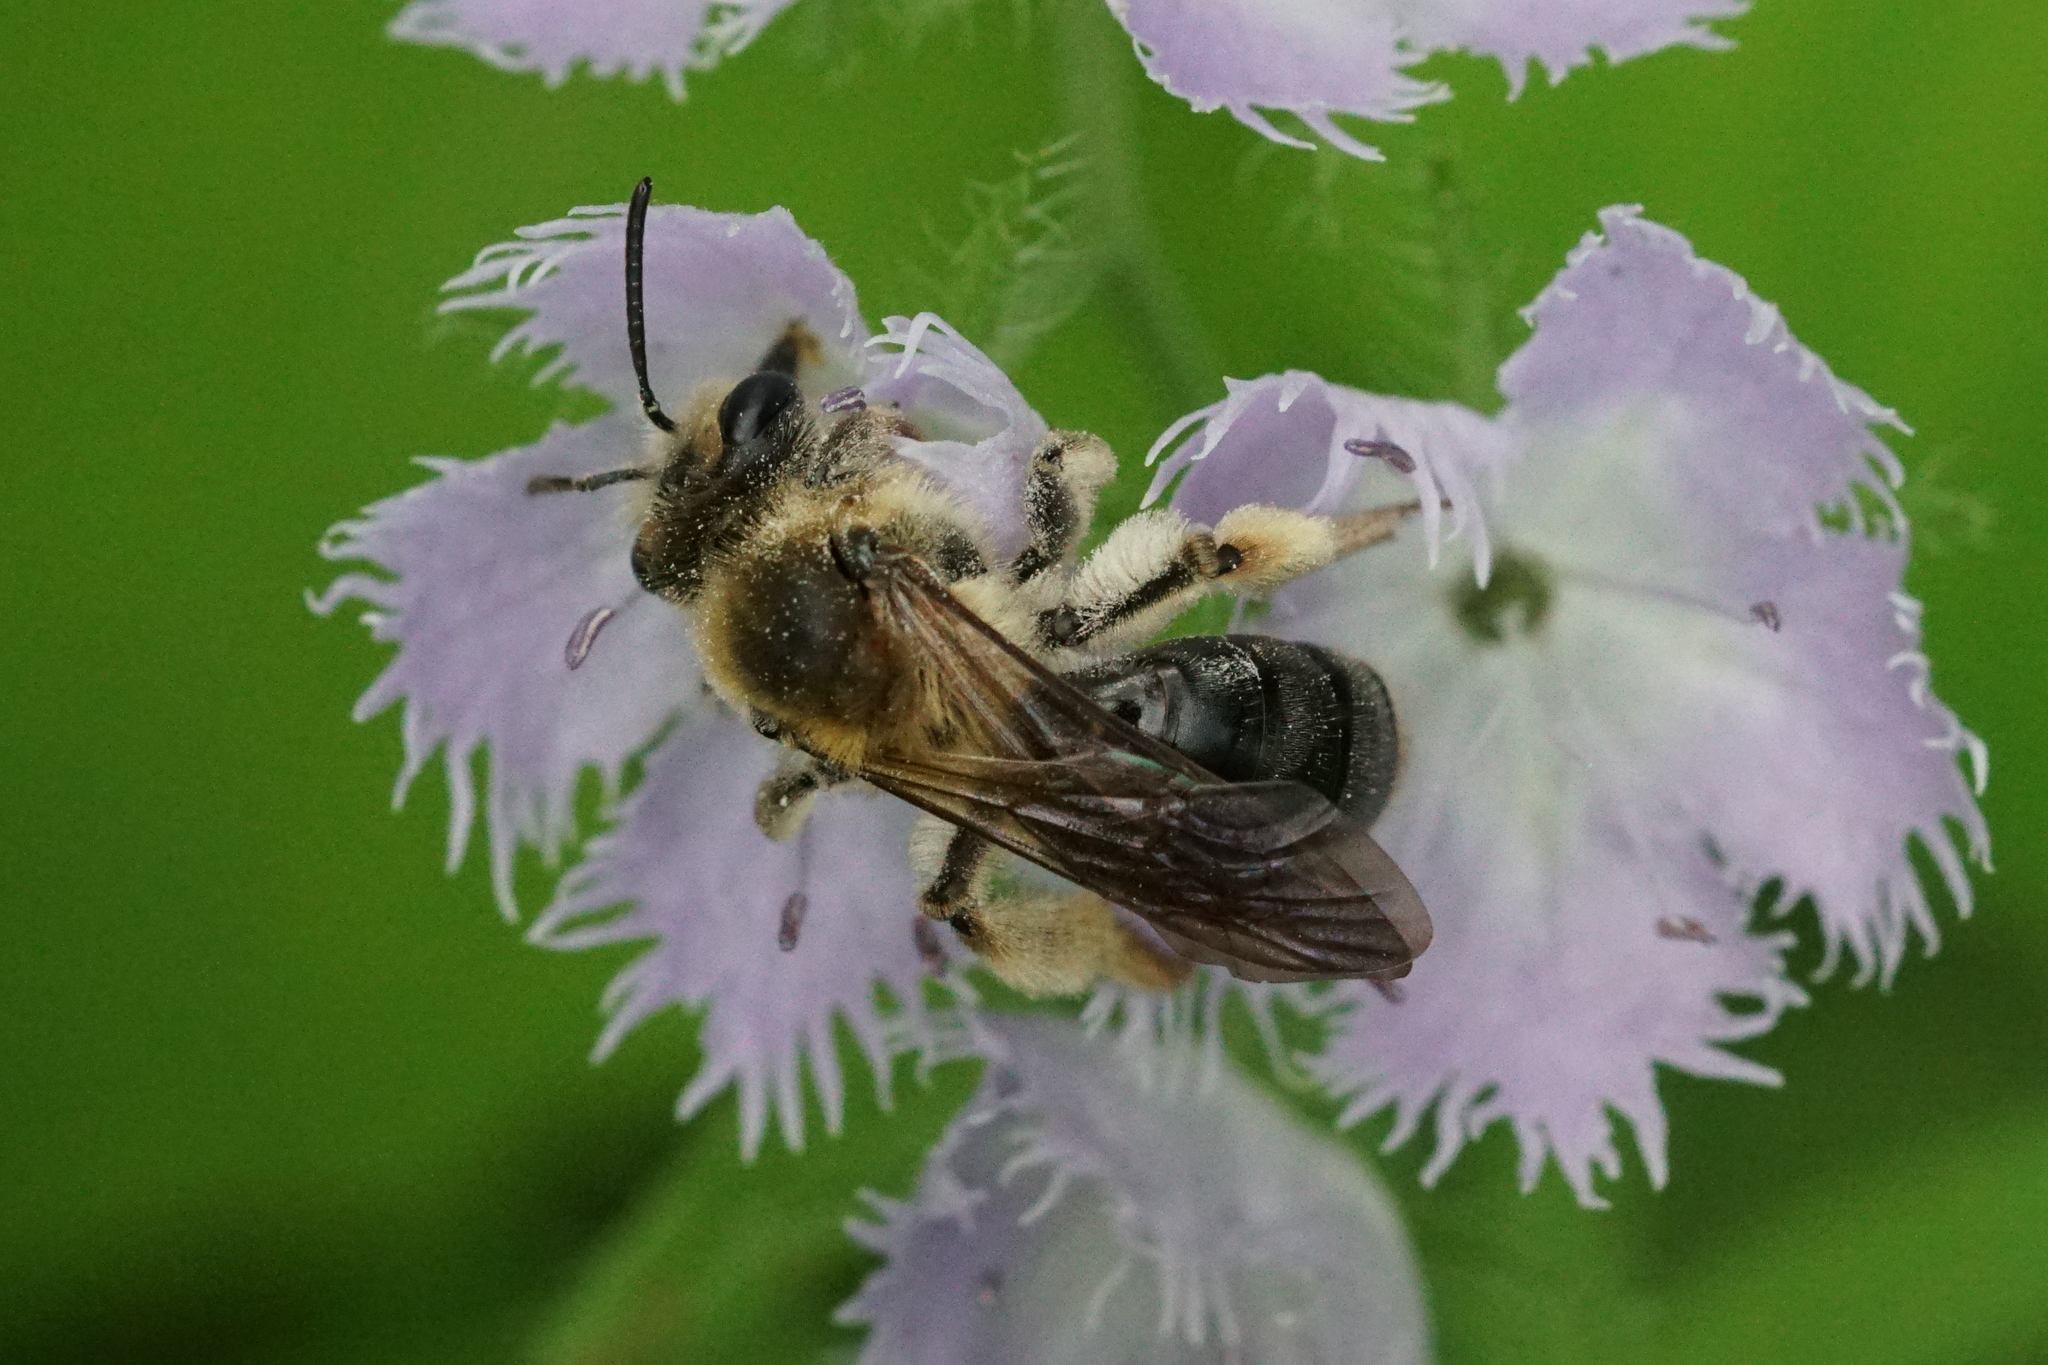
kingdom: Animalia
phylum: Arthropoda
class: Insecta
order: Hymenoptera
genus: Melandrena
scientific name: Melandrena
